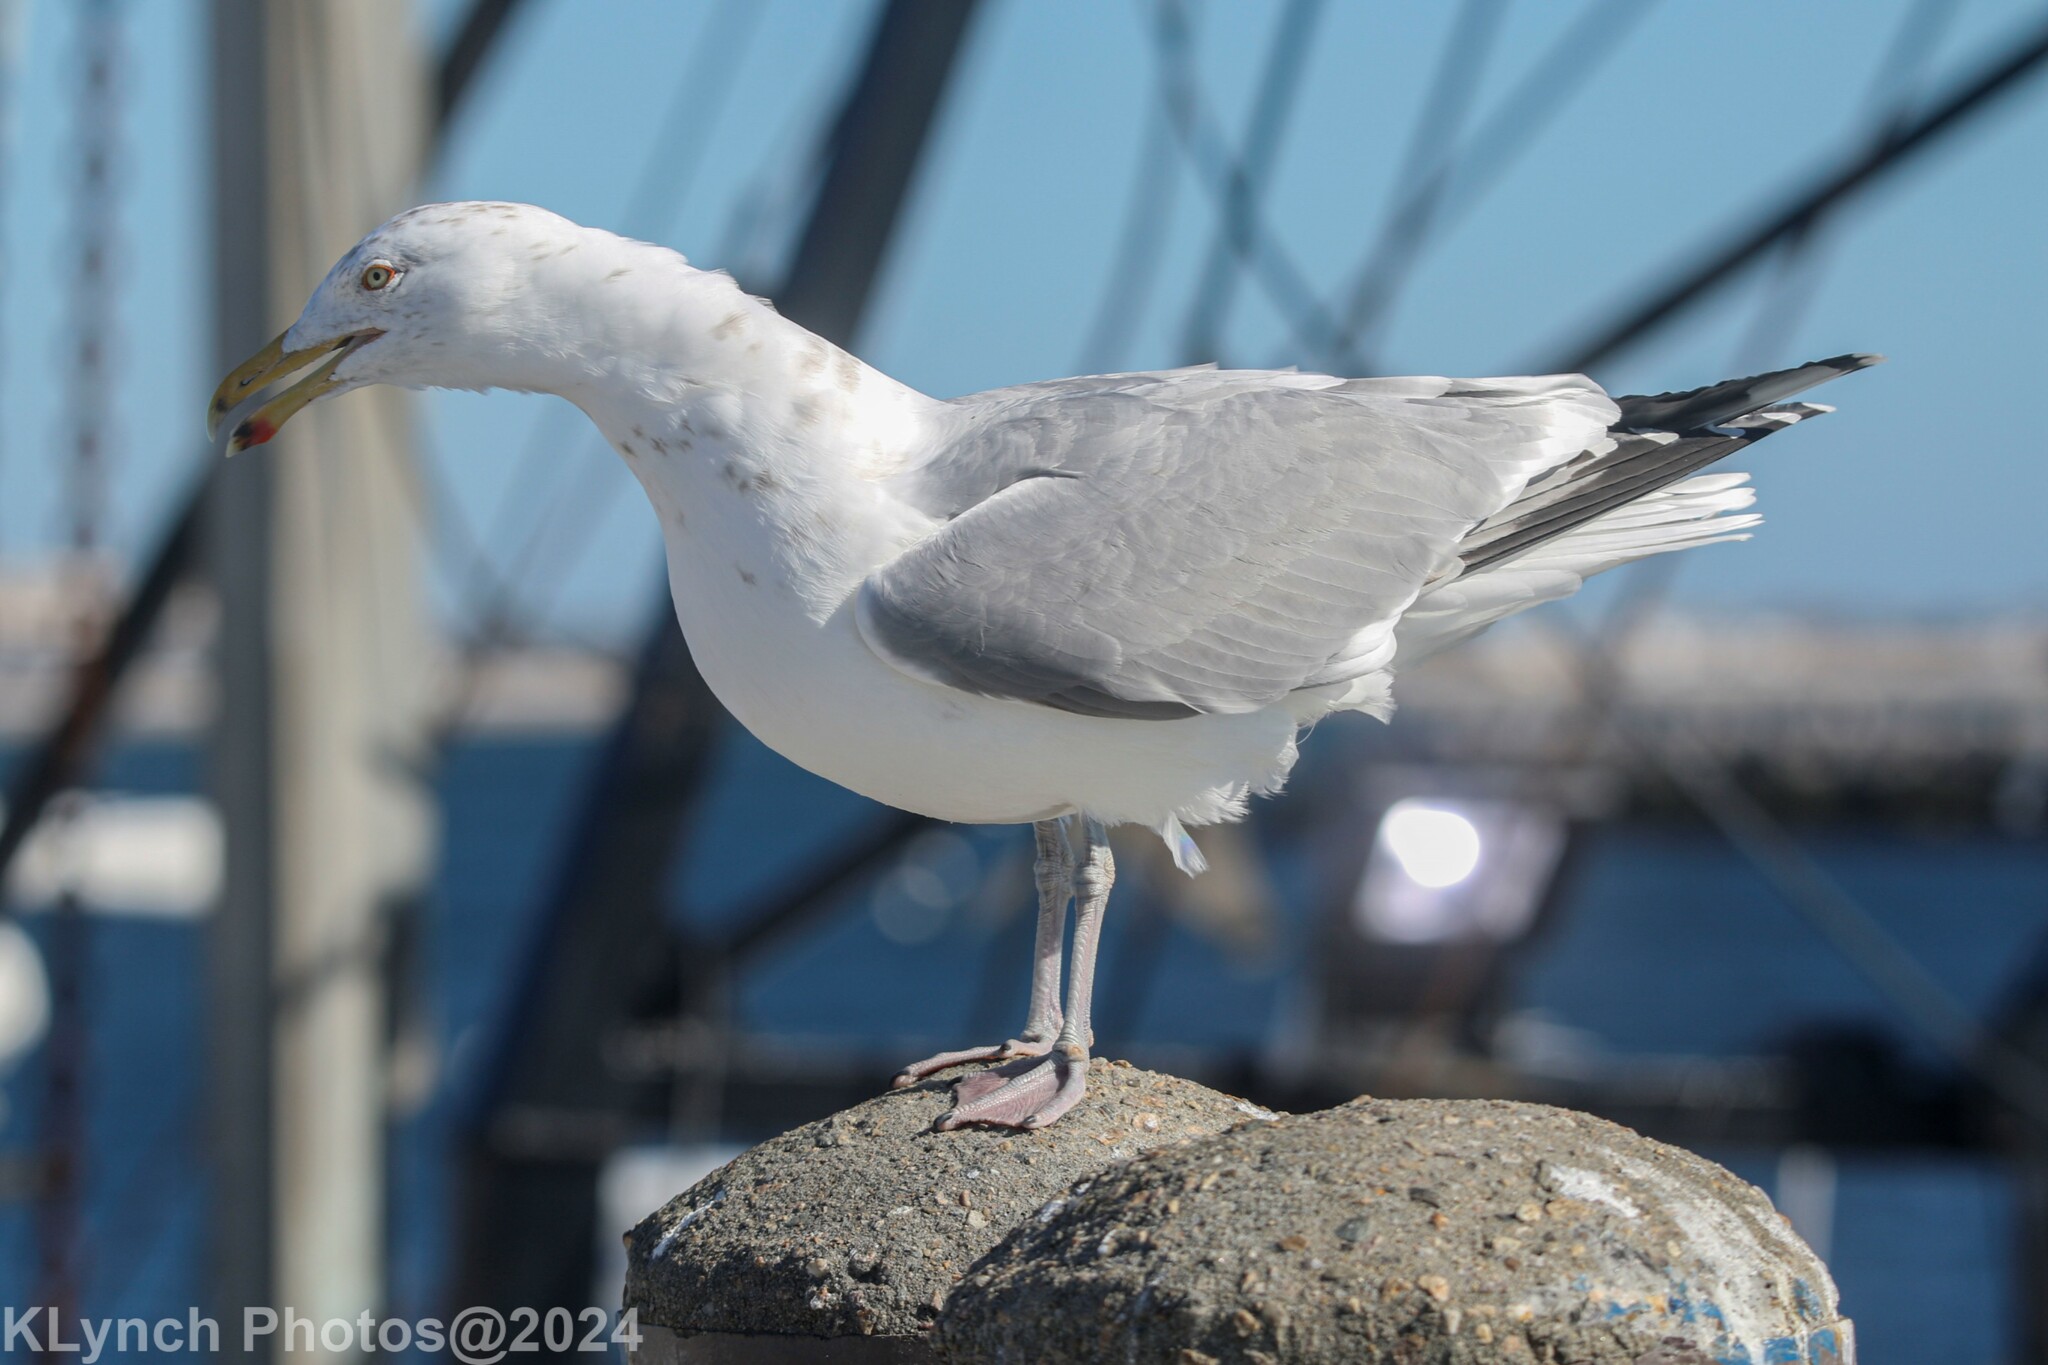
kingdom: Animalia
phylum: Chordata
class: Aves
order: Charadriiformes
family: Laridae
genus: Larus
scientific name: Larus argentatus
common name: Herring gull
